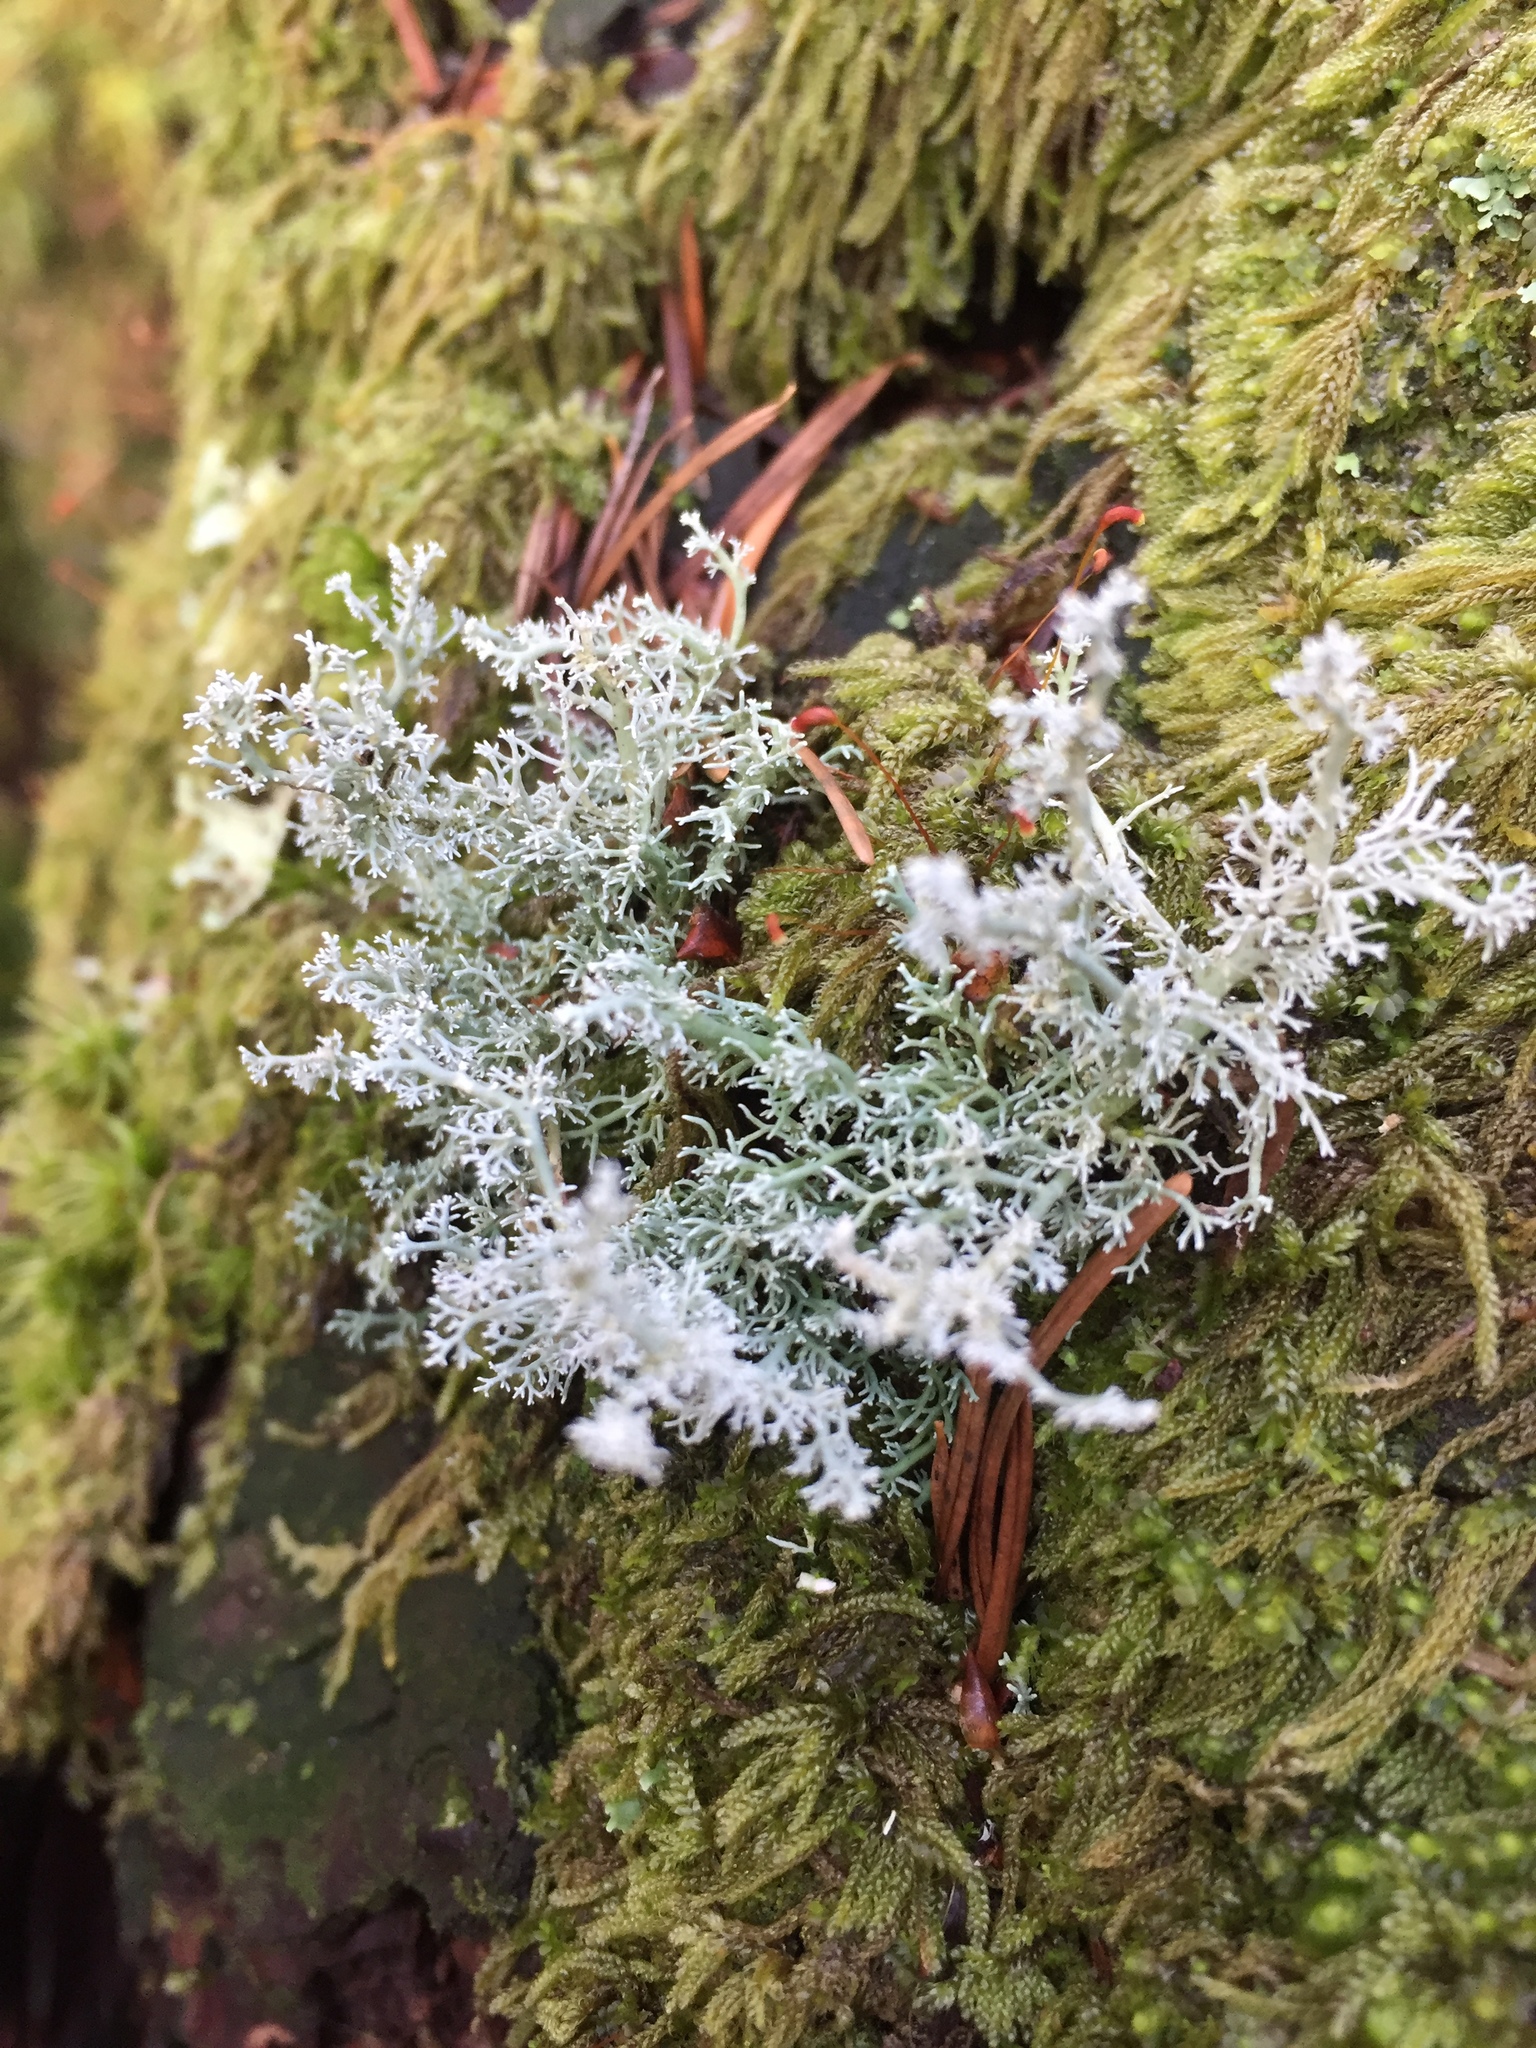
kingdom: Fungi
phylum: Ascomycota
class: Lecanoromycetes
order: Lecanorales
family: Sphaerophoraceae
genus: Sphaerophorus
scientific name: Sphaerophorus globosus
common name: Globe ball lichen
